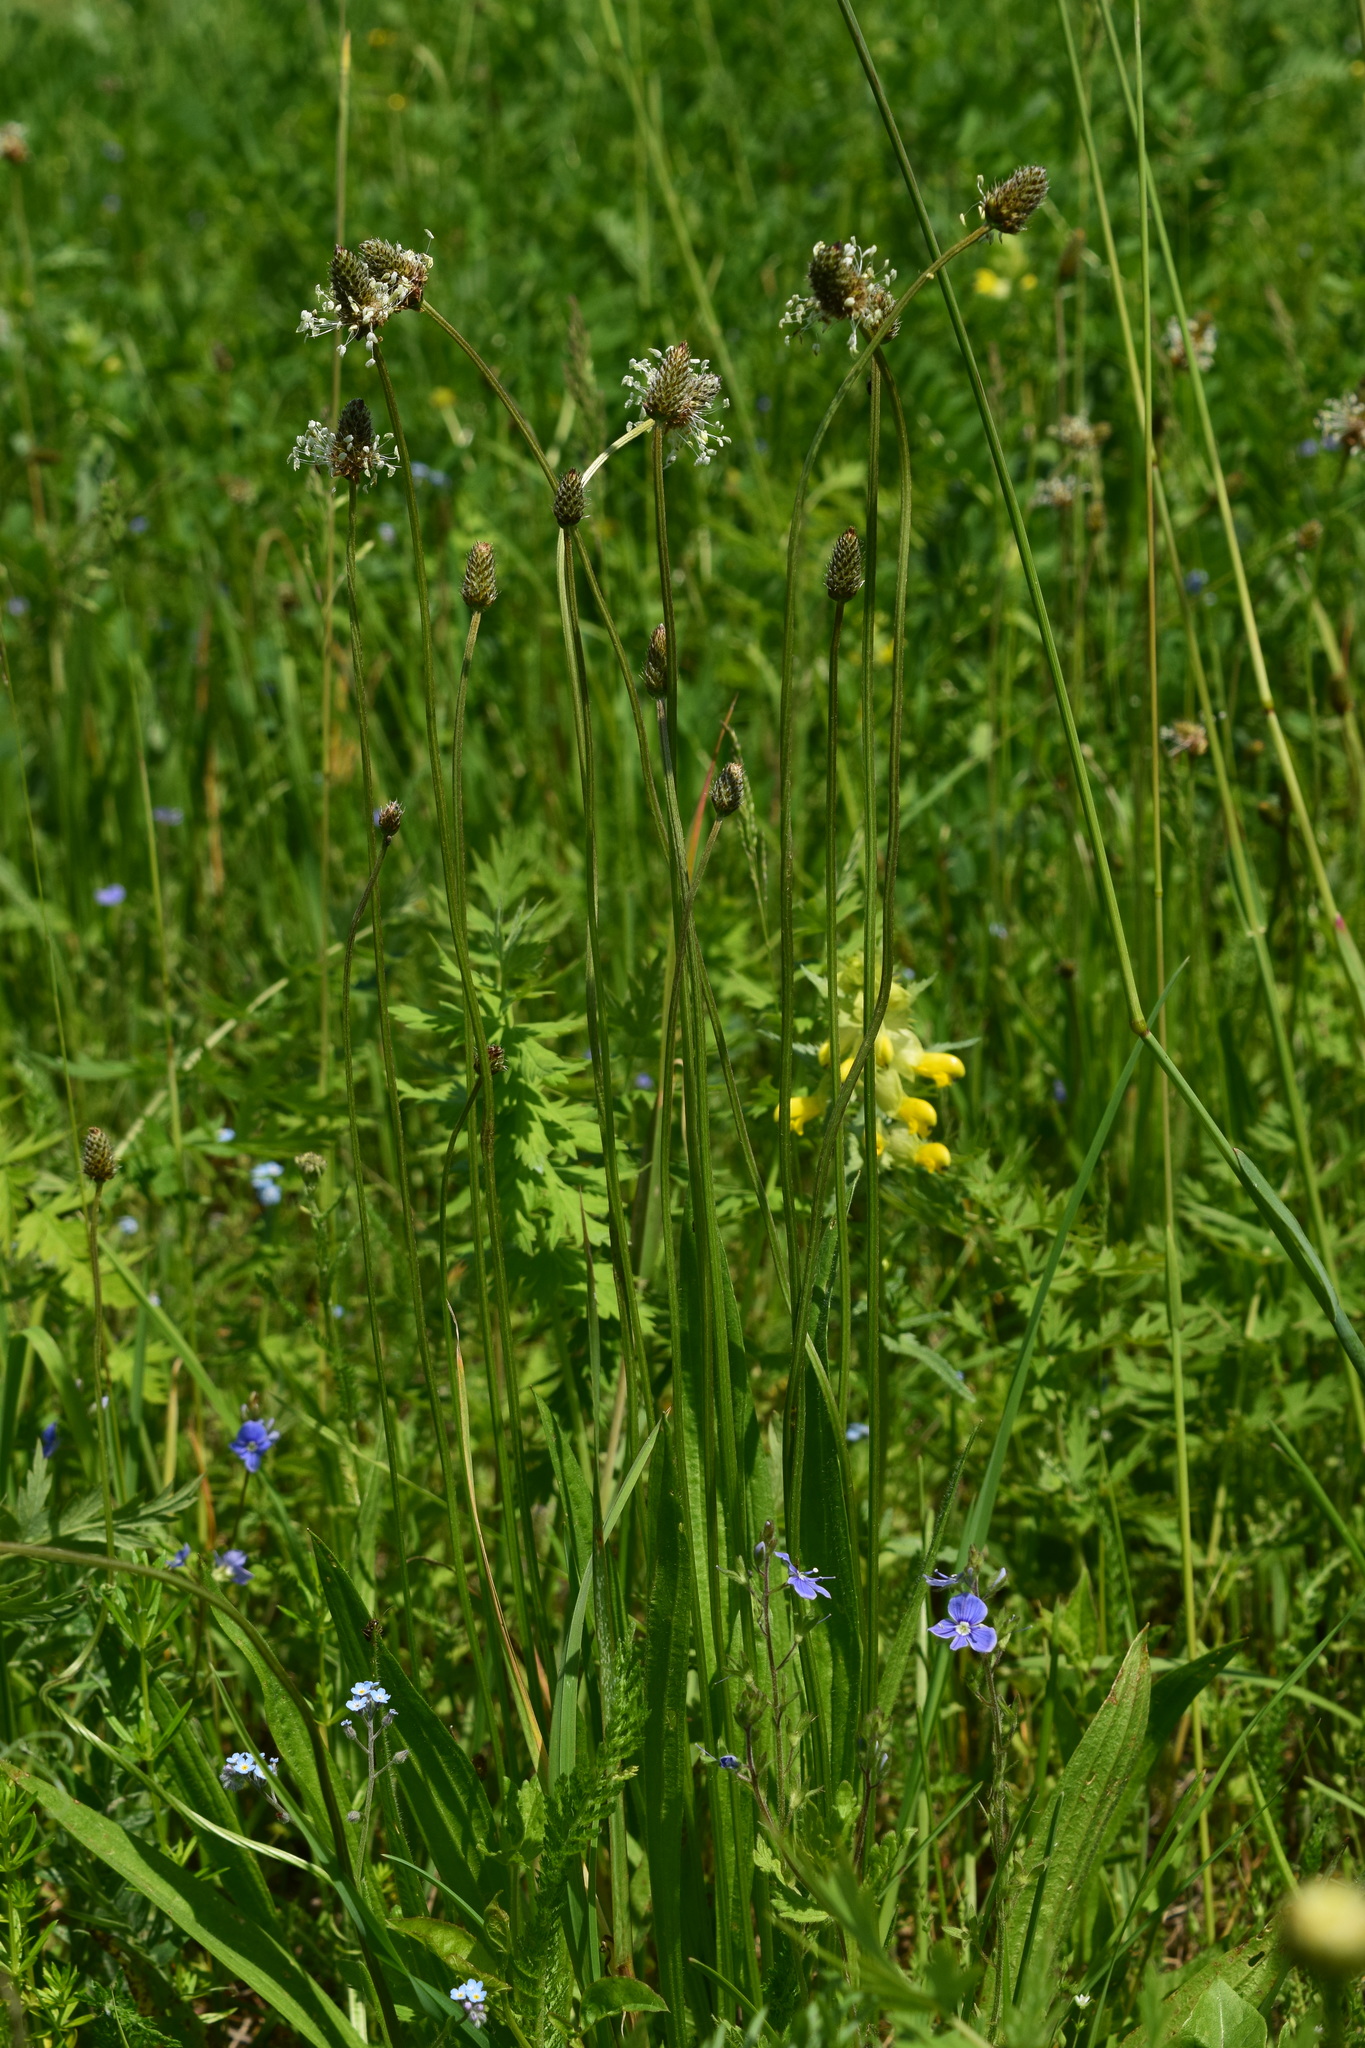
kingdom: Plantae
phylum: Tracheophyta
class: Magnoliopsida
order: Lamiales
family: Plantaginaceae
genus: Plantago
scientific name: Plantago lanceolata
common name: Ribwort plantain
